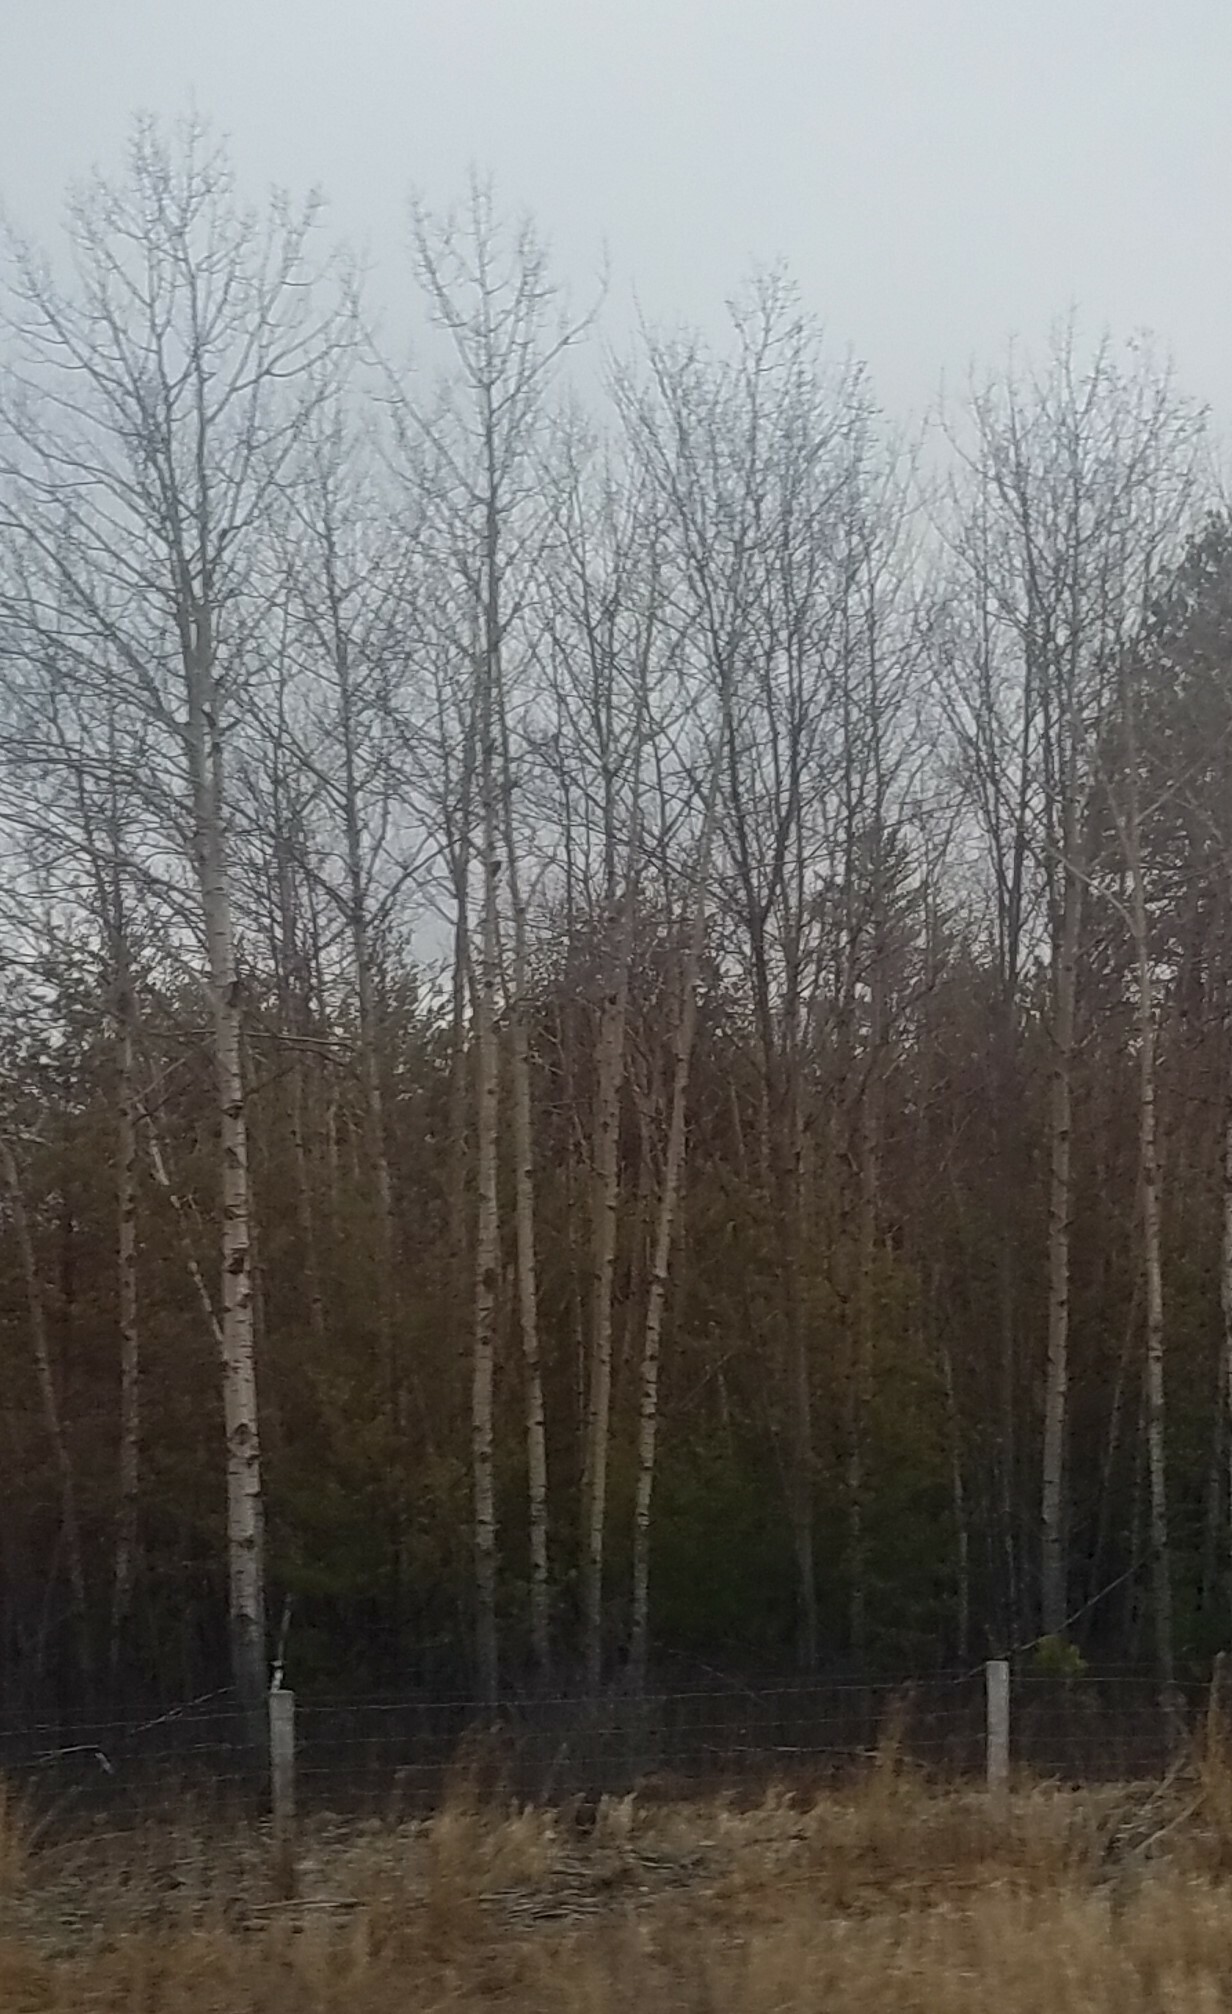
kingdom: Plantae
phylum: Tracheophyta
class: Magnoliopsida
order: Malpighiales
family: Salicaceae
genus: Populus
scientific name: Populus tremuloides
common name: Quaking aspen
